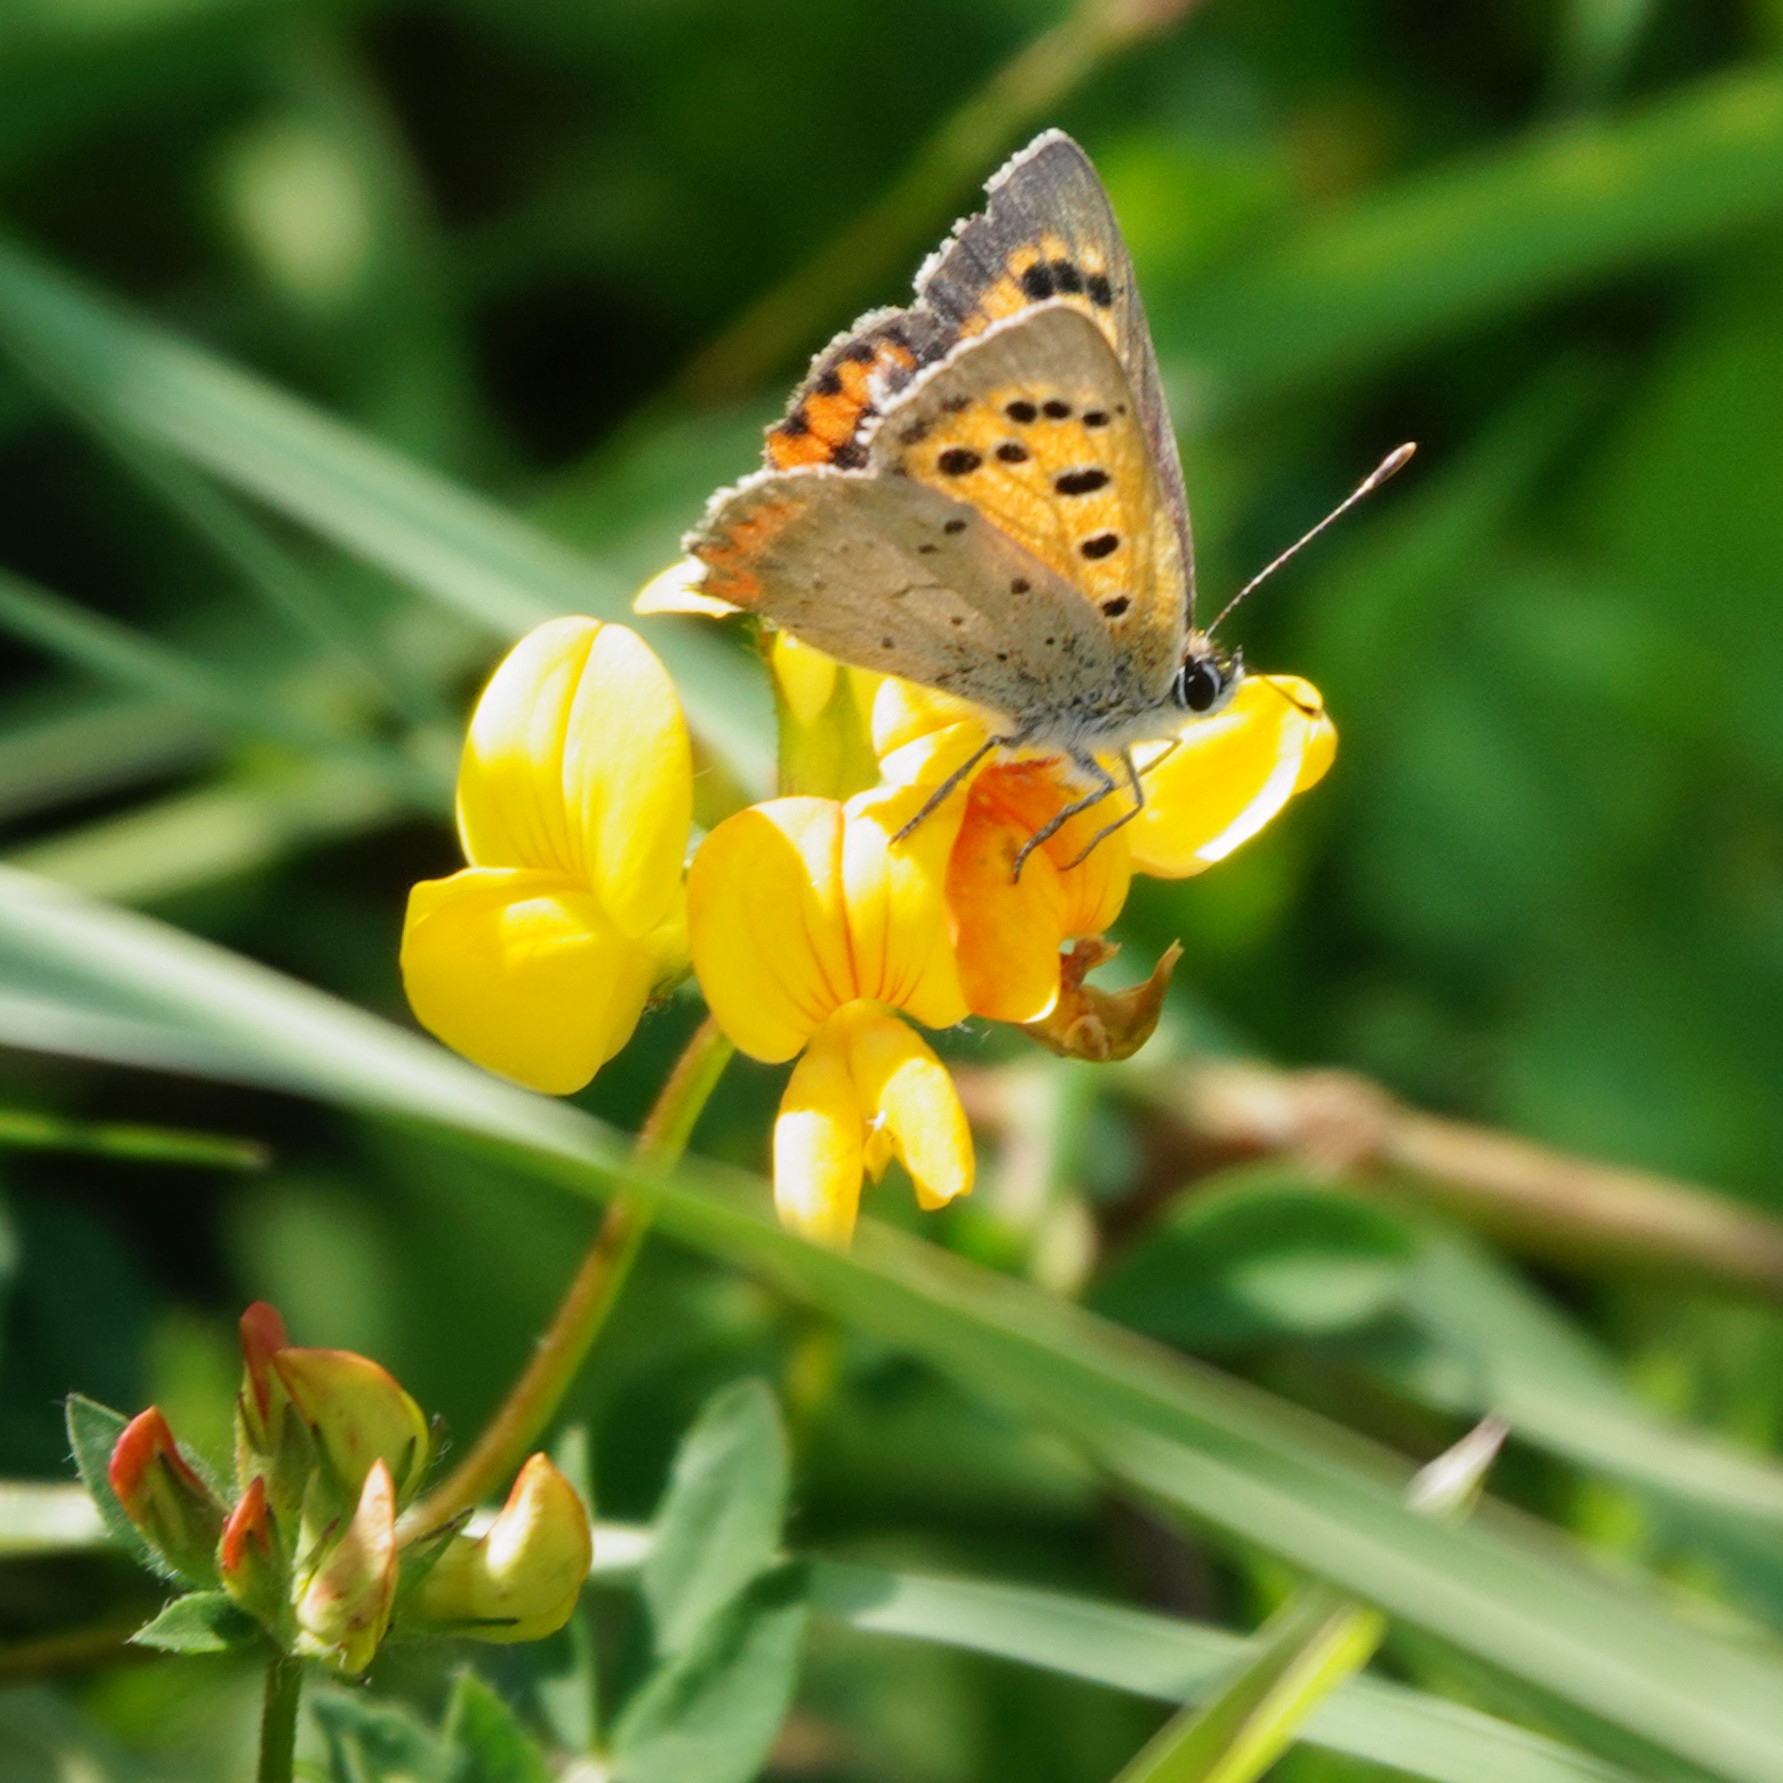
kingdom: Animalia
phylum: Arthropoda
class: Insecta
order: Lepidoptera
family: Lycaenidae
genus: Lycaena
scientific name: Lycaena phlaeas
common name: Small copper
